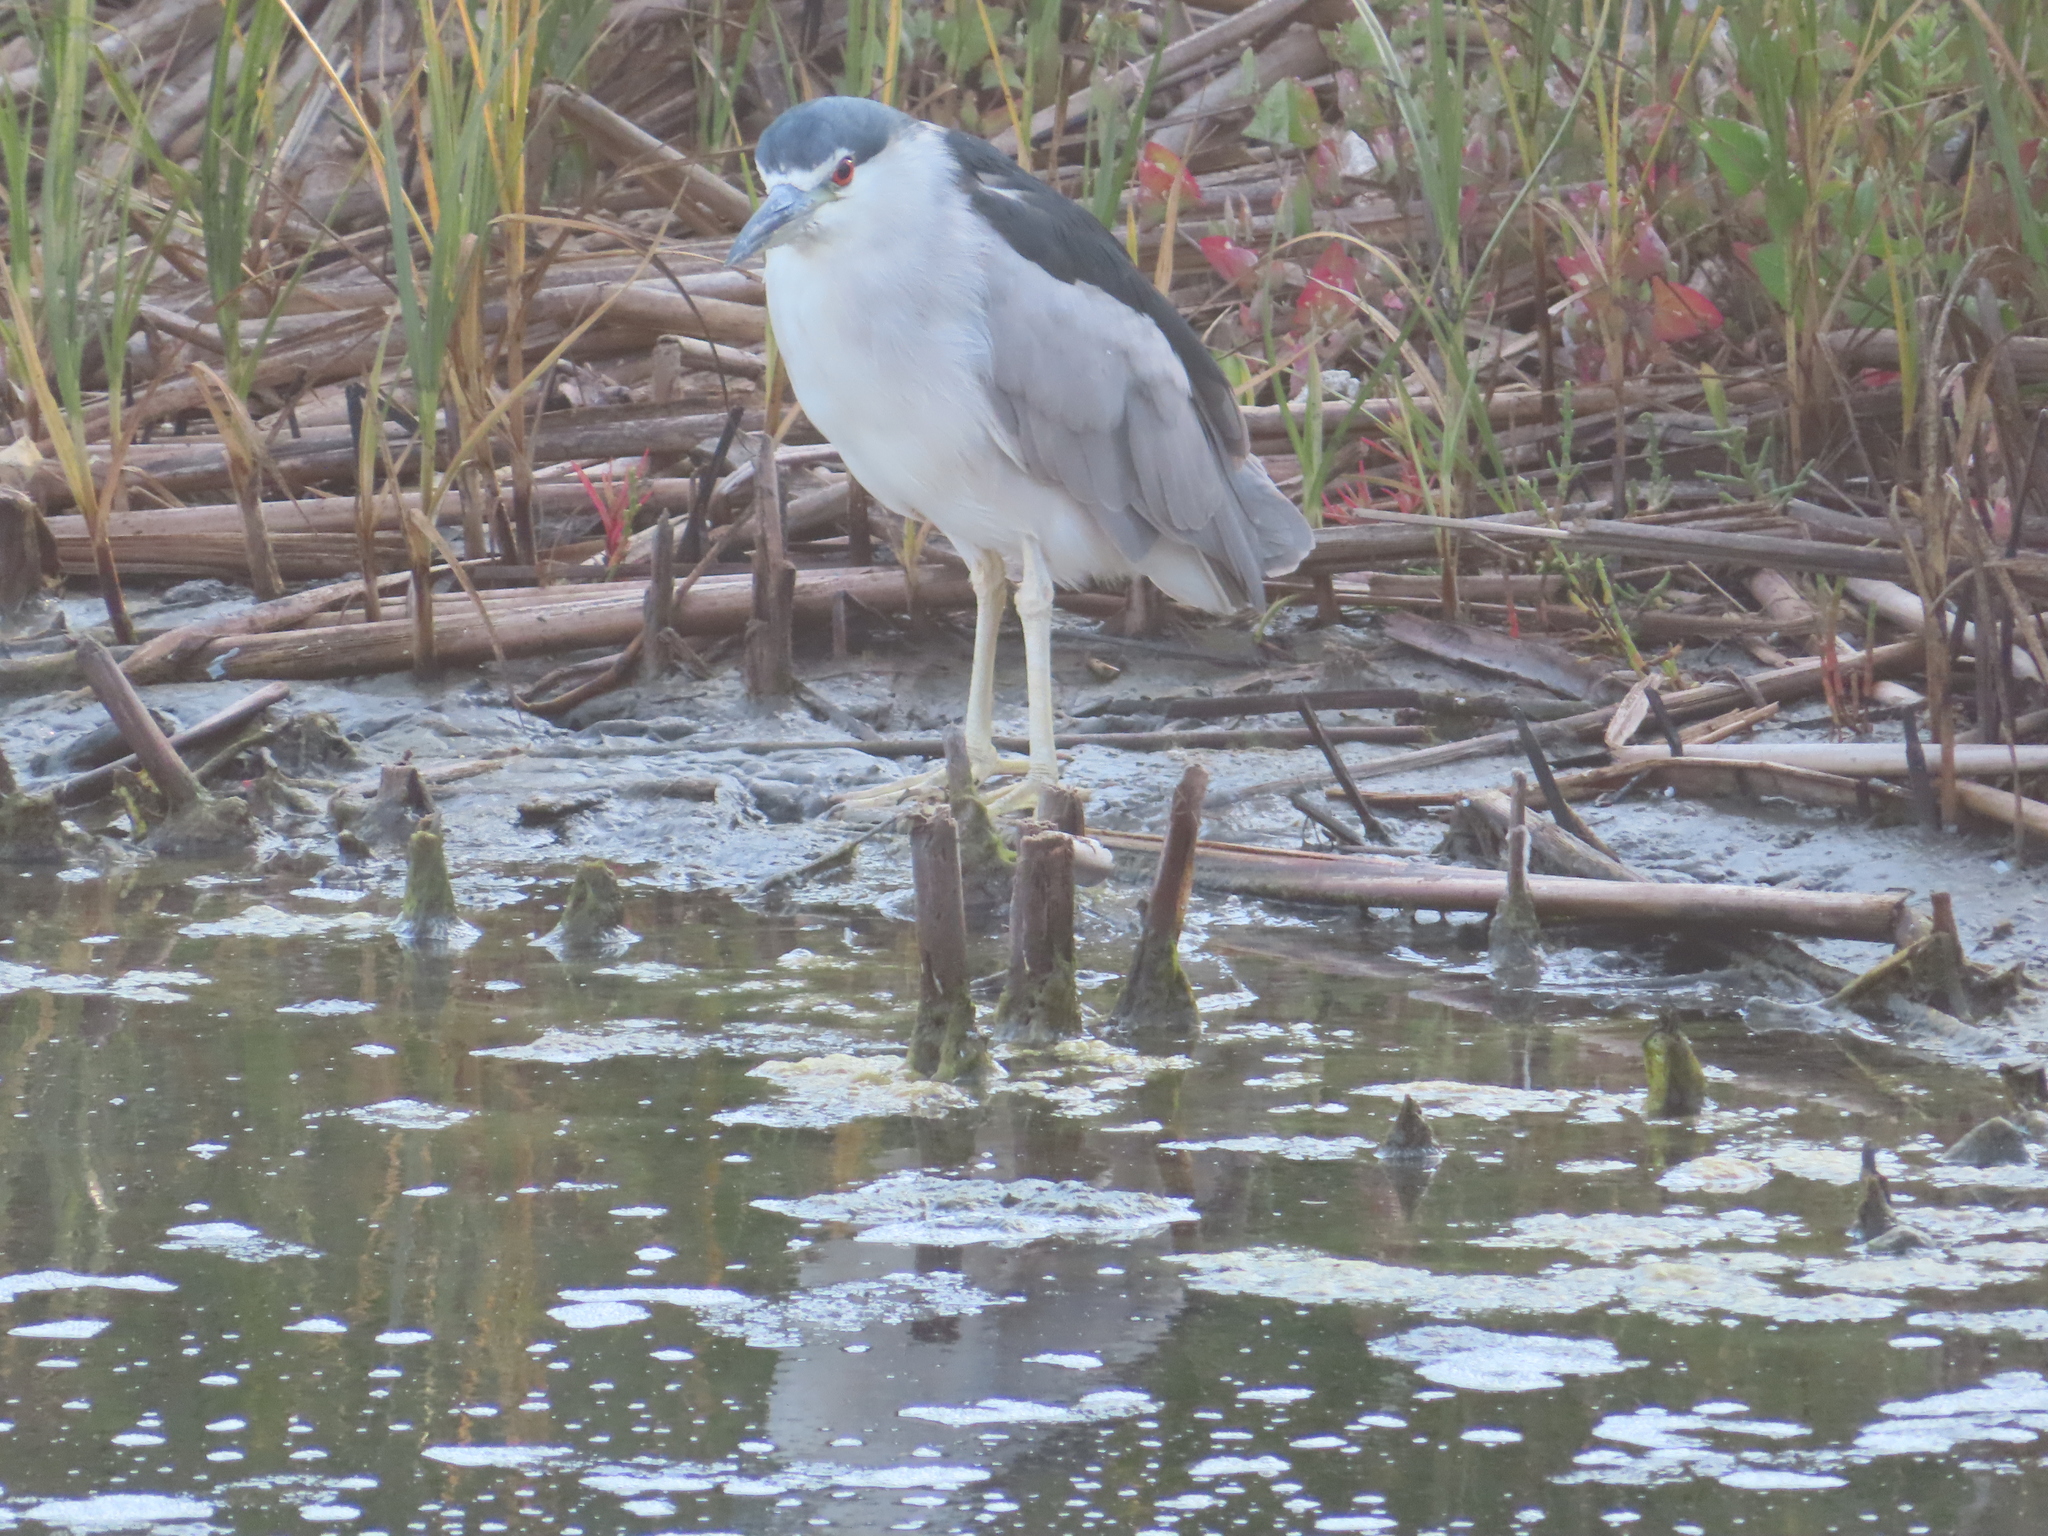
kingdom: Animalia
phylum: Chordata
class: Aves
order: Pelecaniformes
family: Ardeidae
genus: Nycticorax
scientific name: Nycticorax nycticorax
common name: Black-crowned night heron
